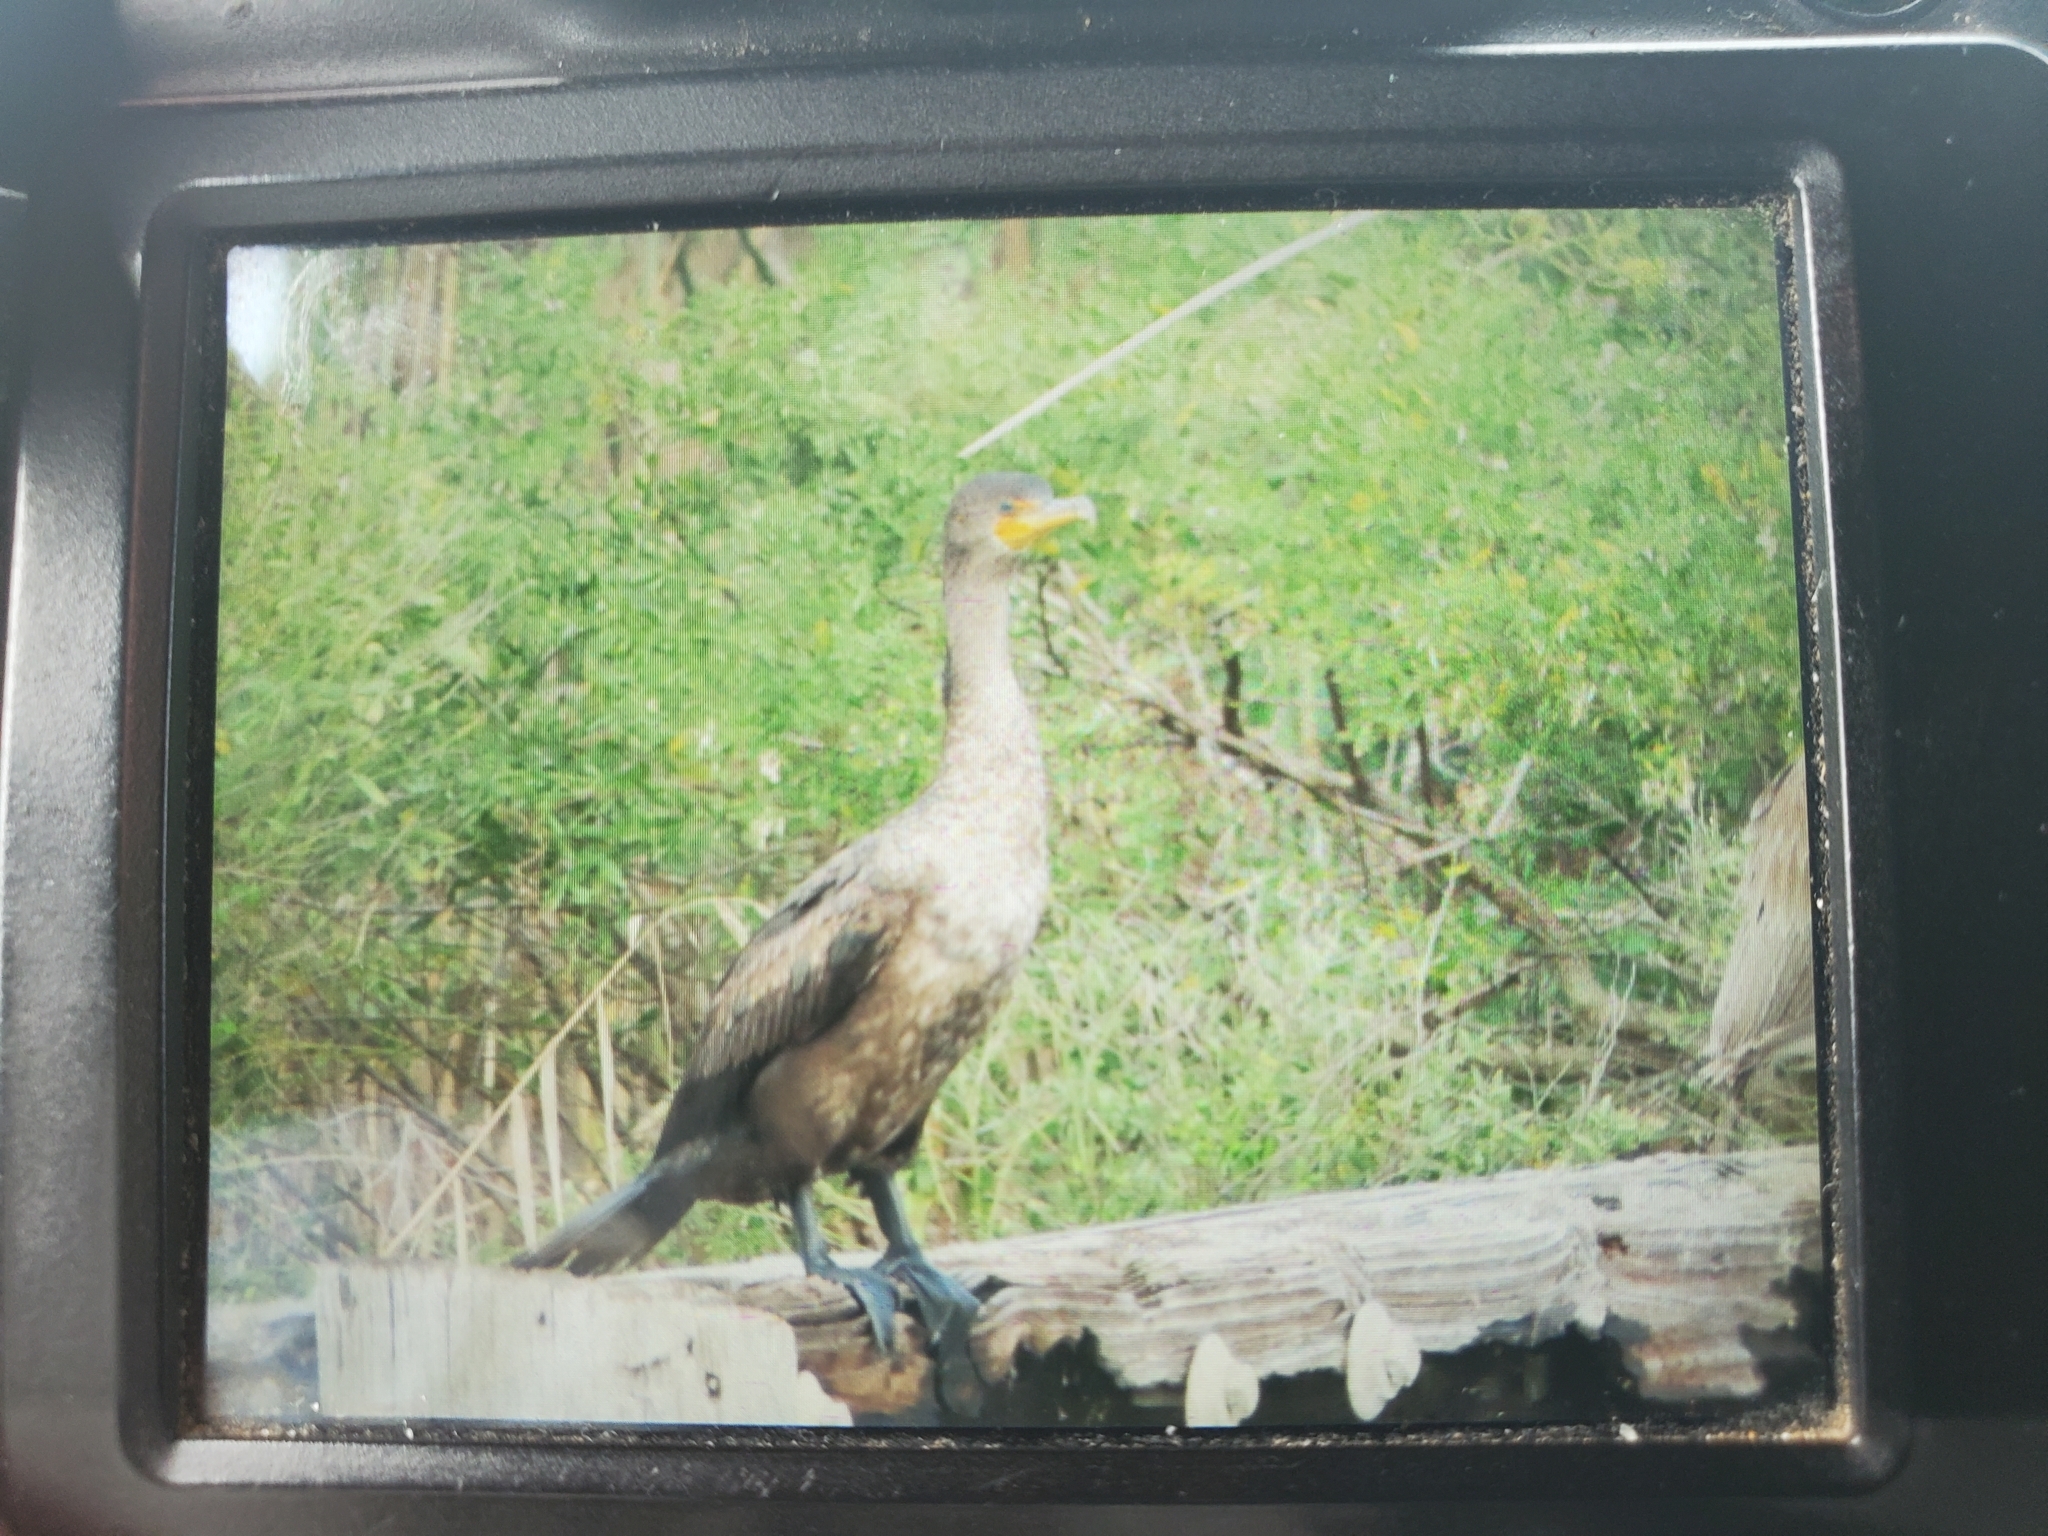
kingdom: Animalia
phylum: Chordata
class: Aves
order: Suliformes
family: Phalacrocoracidae
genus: Phalacrocorax
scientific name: Phalacrocorax auritus
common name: Double-crested cormorant
